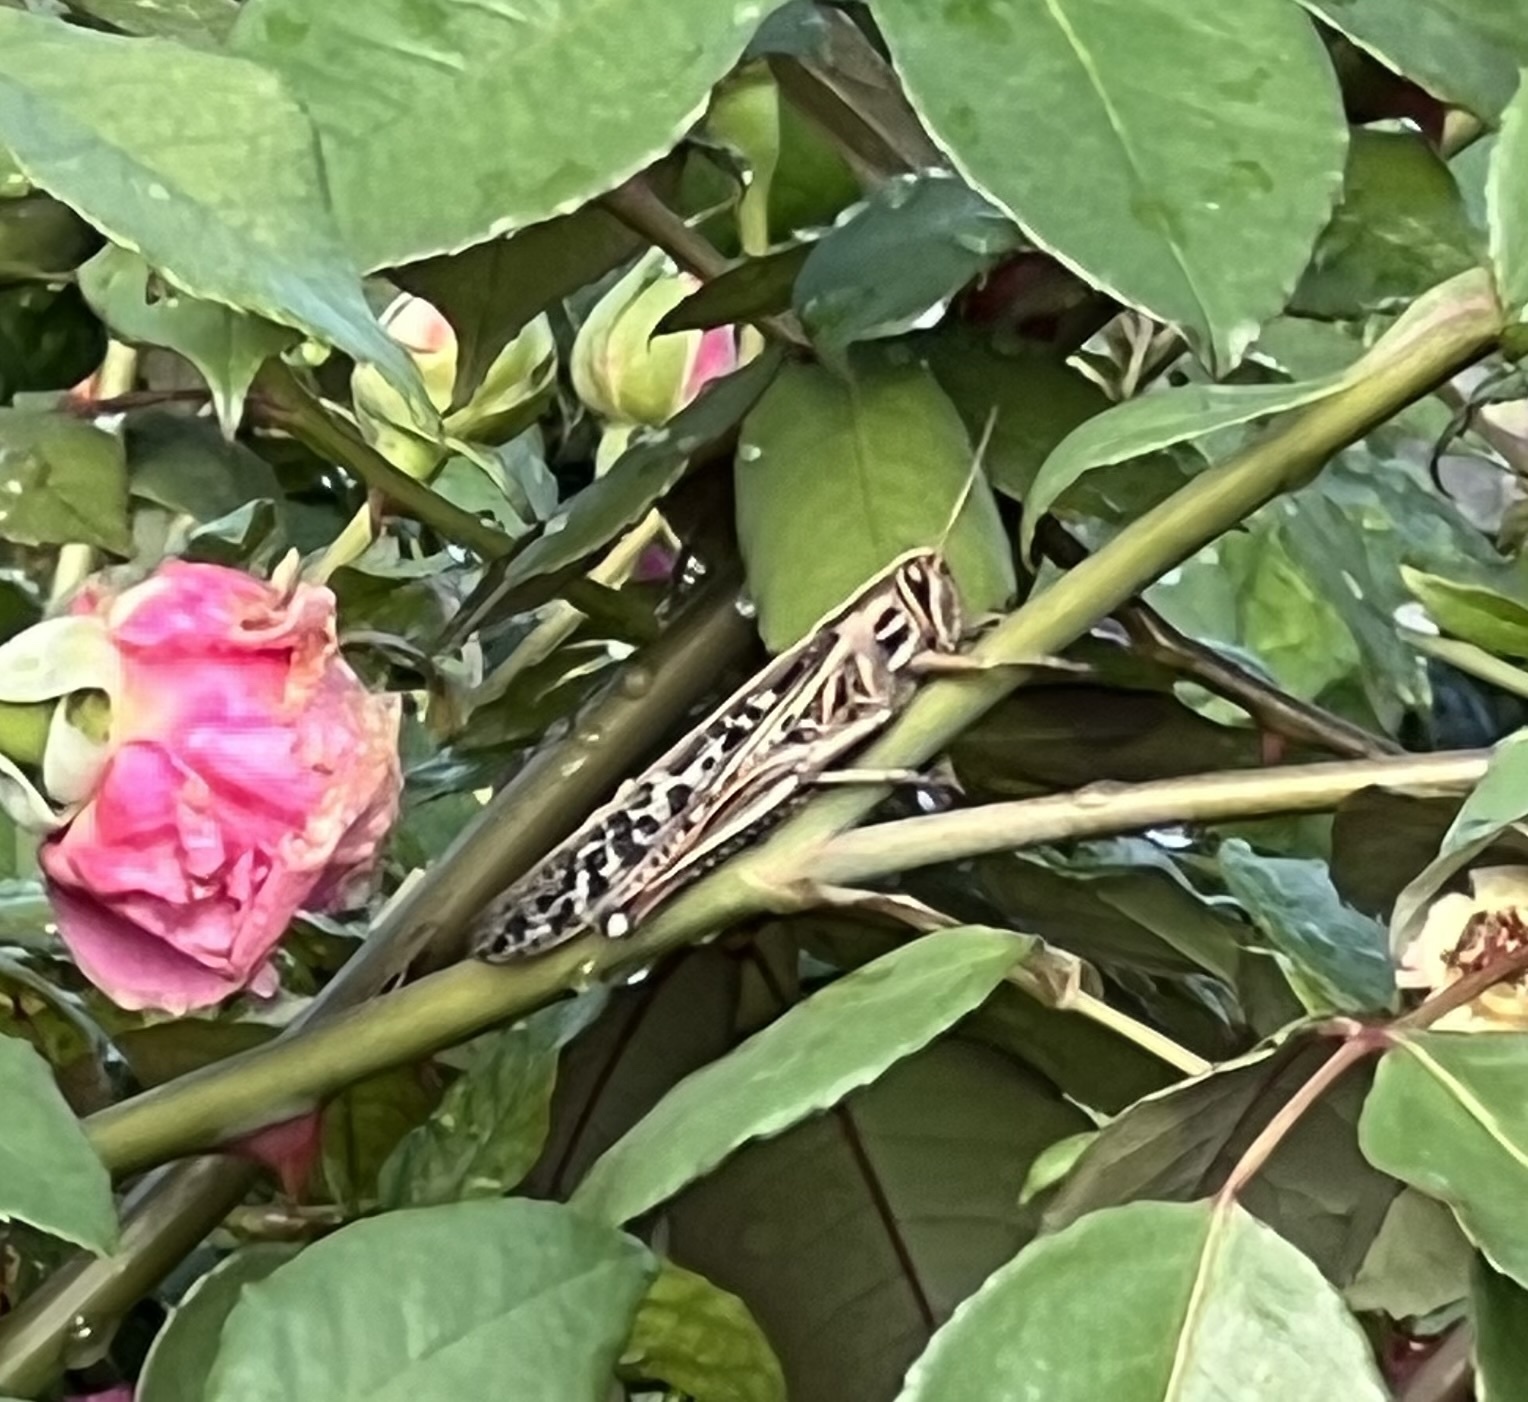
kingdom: Animalia
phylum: Arthropoda
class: Insecta
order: Orthoptera
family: Acrididae
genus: Schistocerca
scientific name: Schistocerca americana
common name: American bird locust
